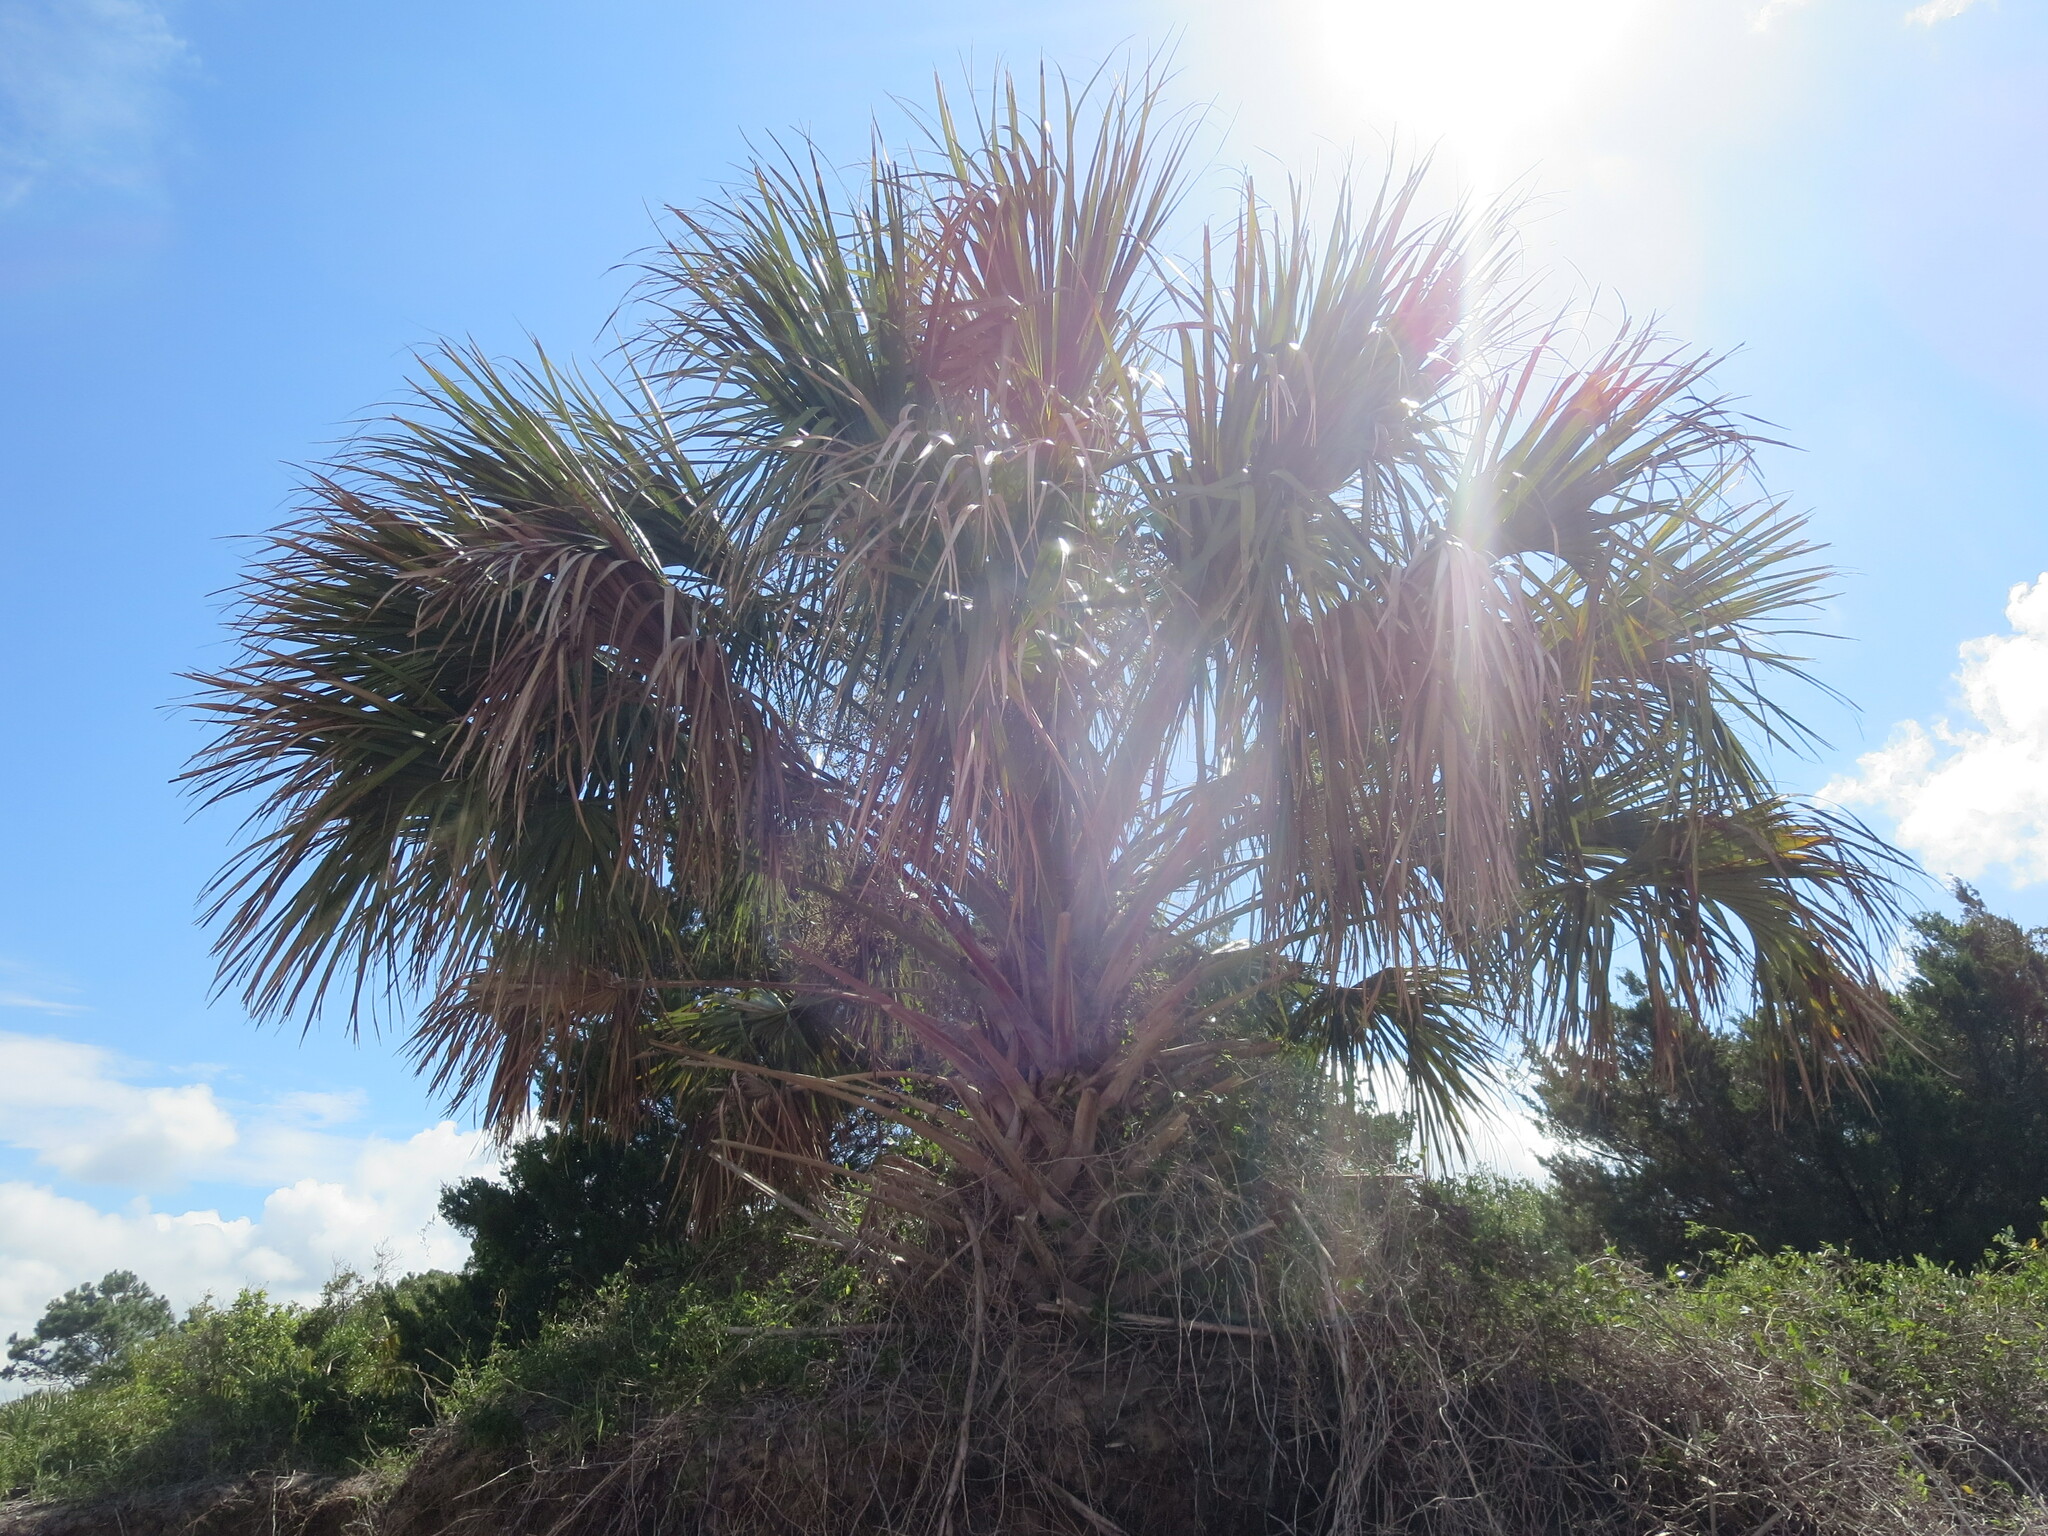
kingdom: Plantae
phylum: Tracheophyta
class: Liliopsida
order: Arecales
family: Arecaceae
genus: Sabal
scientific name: Sabal palmetto
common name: Blue palmetto
